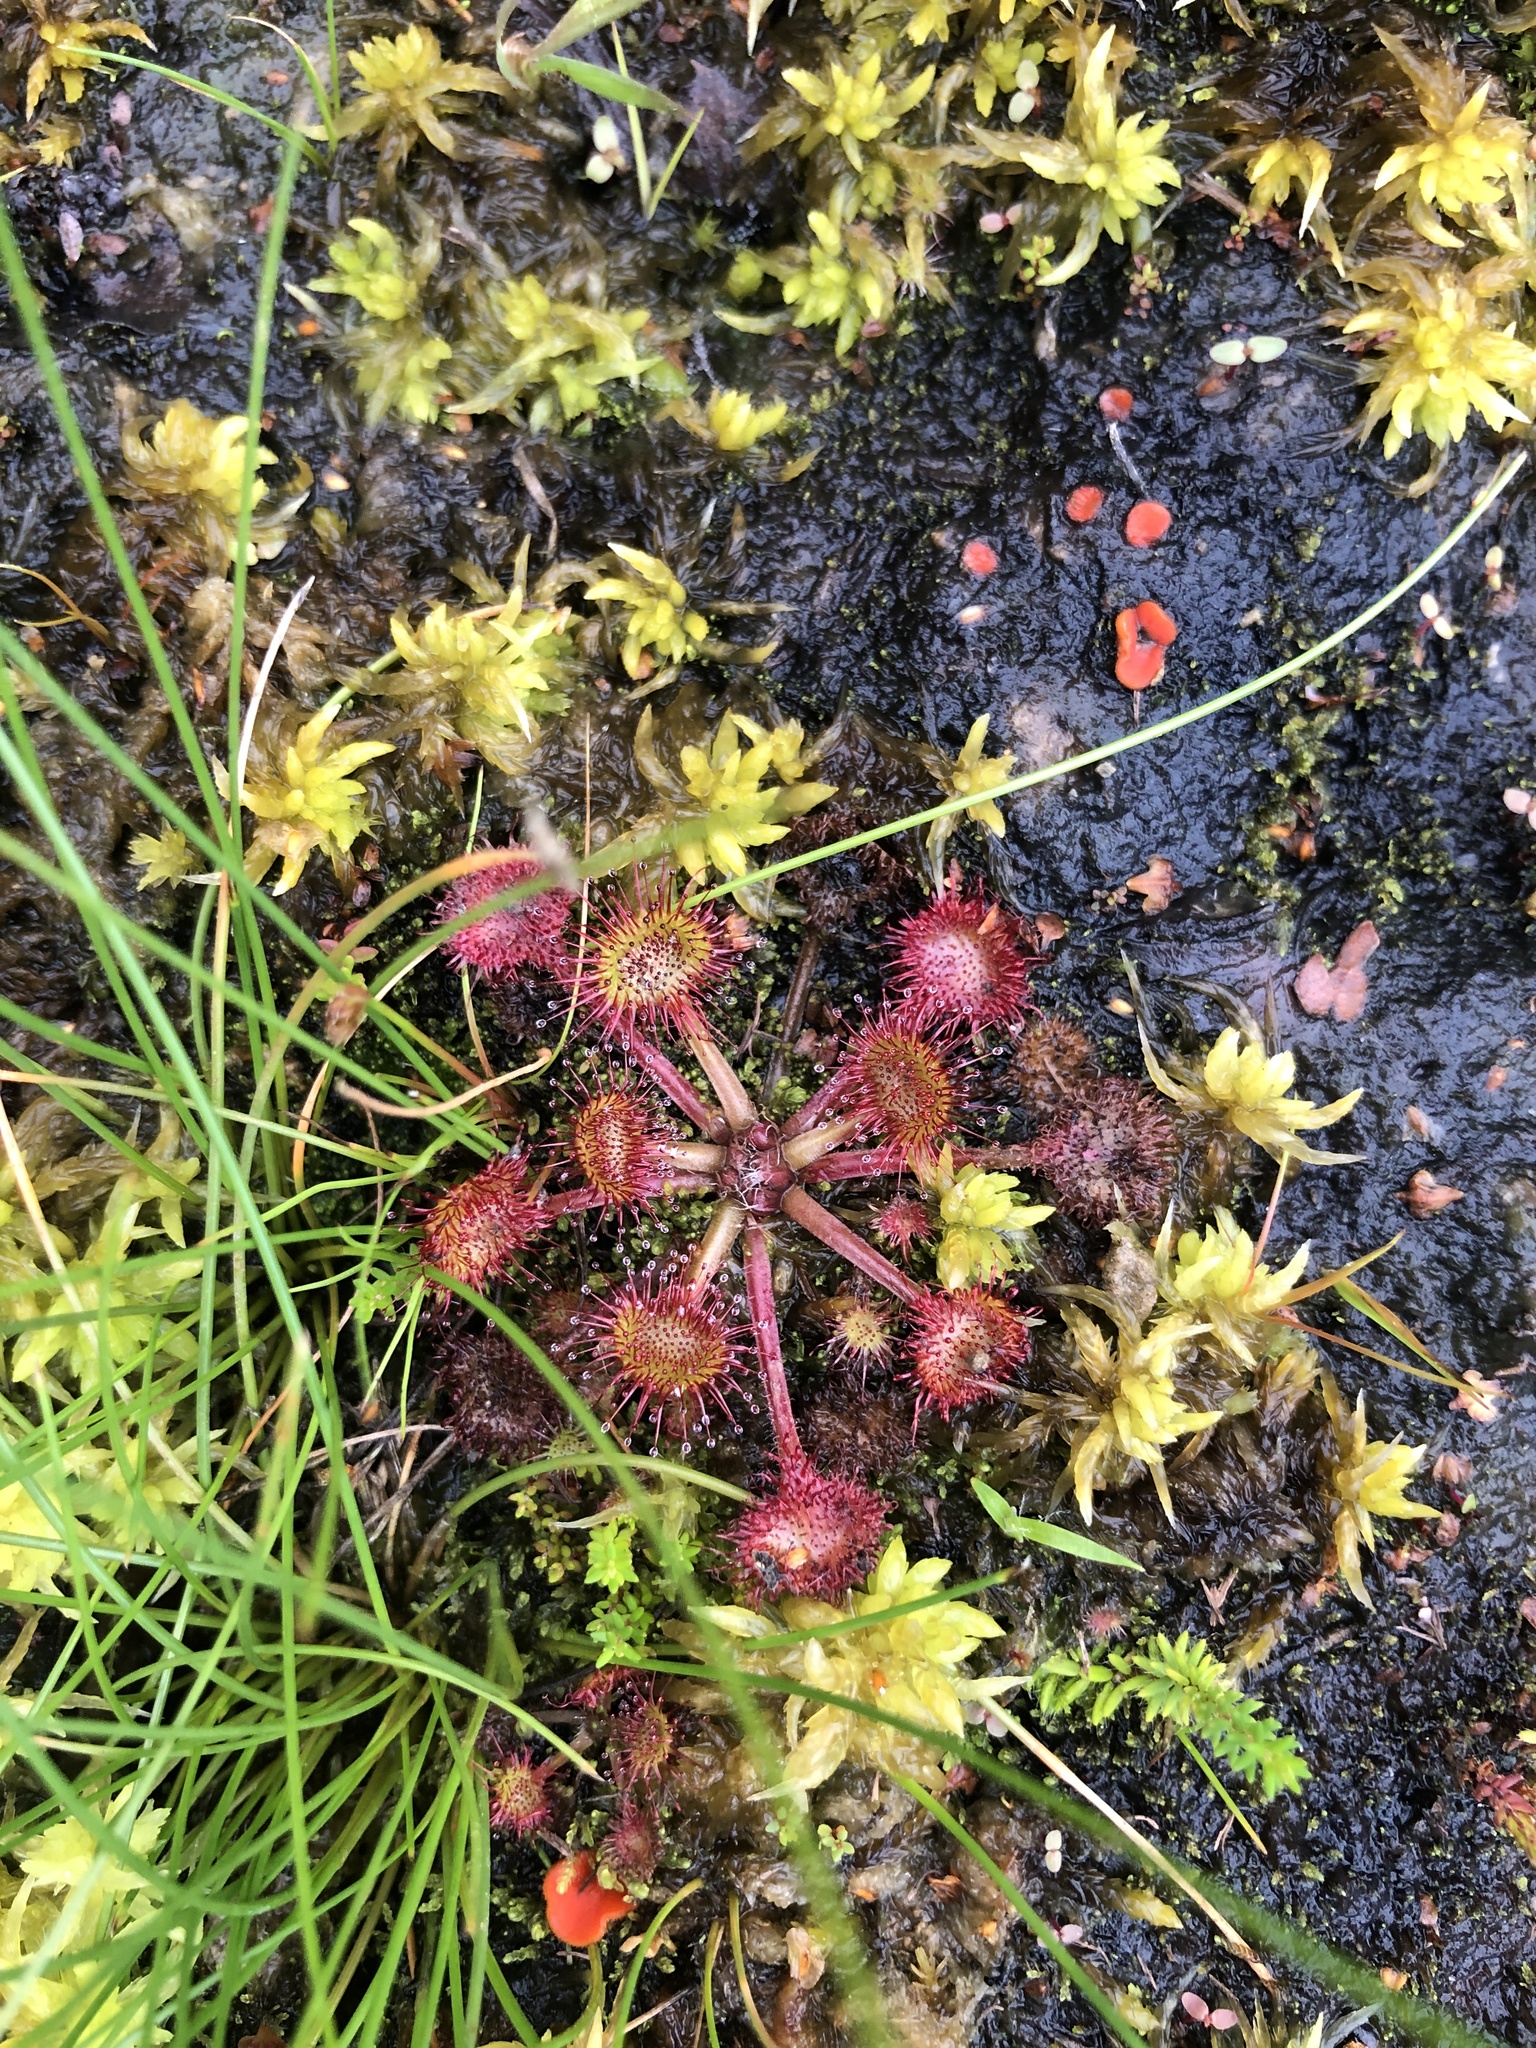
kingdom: Plantae
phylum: Tracheophyta
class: Magnoliopsida
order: Caryophyllales
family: Droseraceae
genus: Drosera
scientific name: Drosera rotundifolia
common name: Round-leaved sundew
